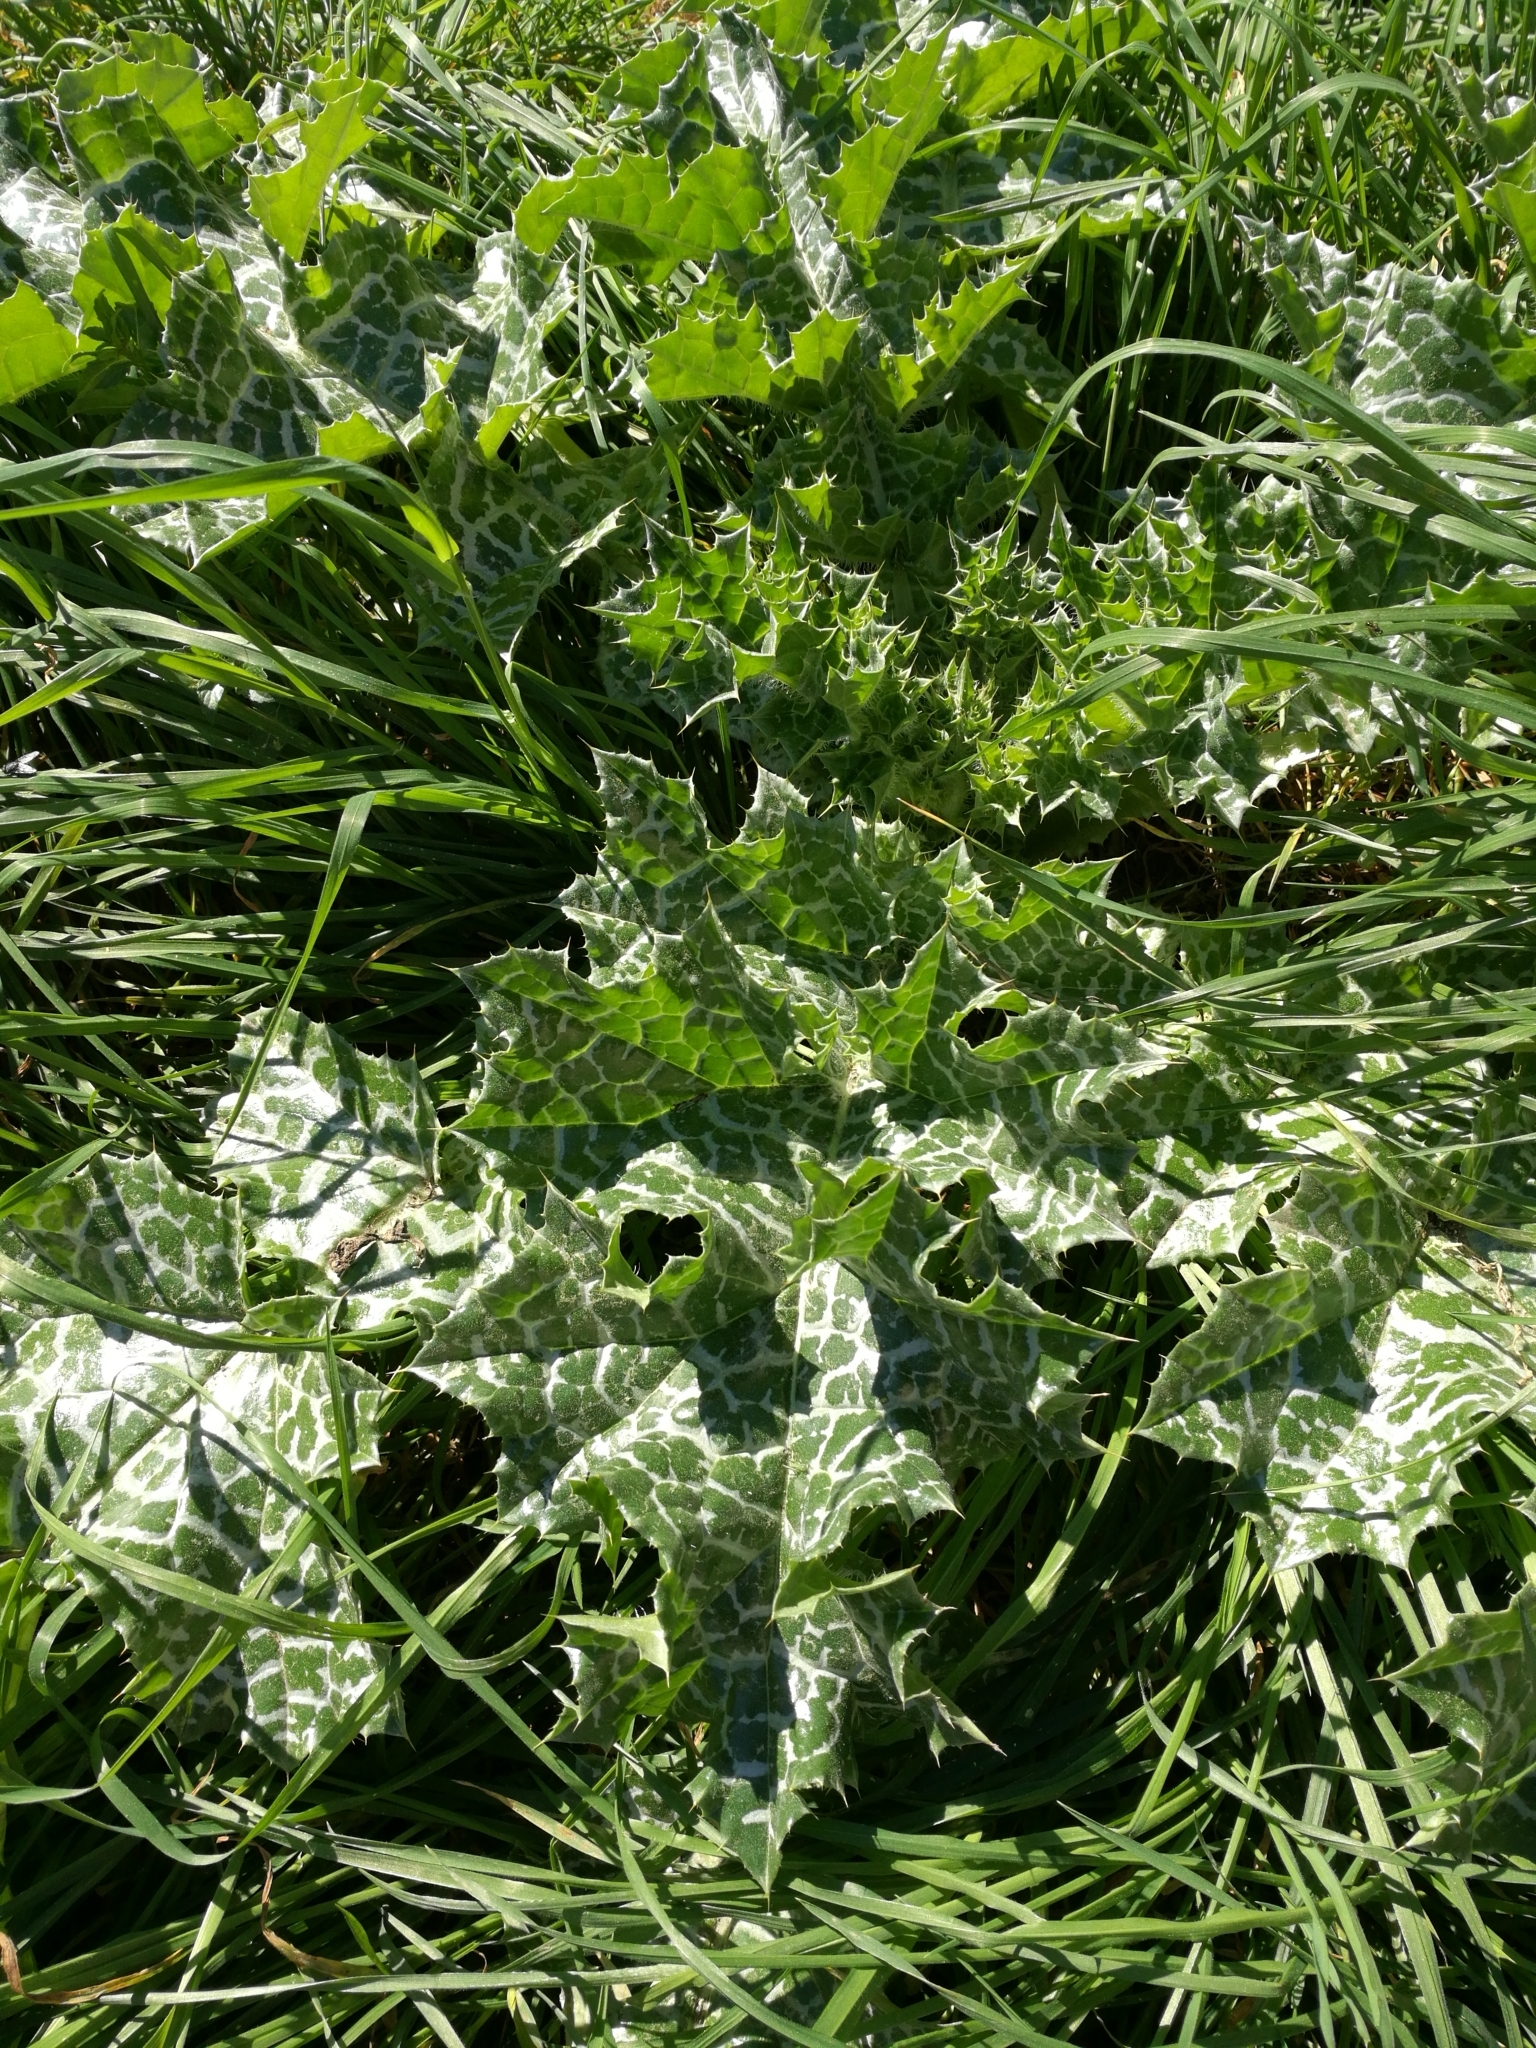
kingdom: Plantae
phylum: Tracheophyta
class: Magnoliopsida
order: Asterales
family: Asteraceae
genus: Silybum
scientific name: Silybum marianum
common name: Milk thistle
